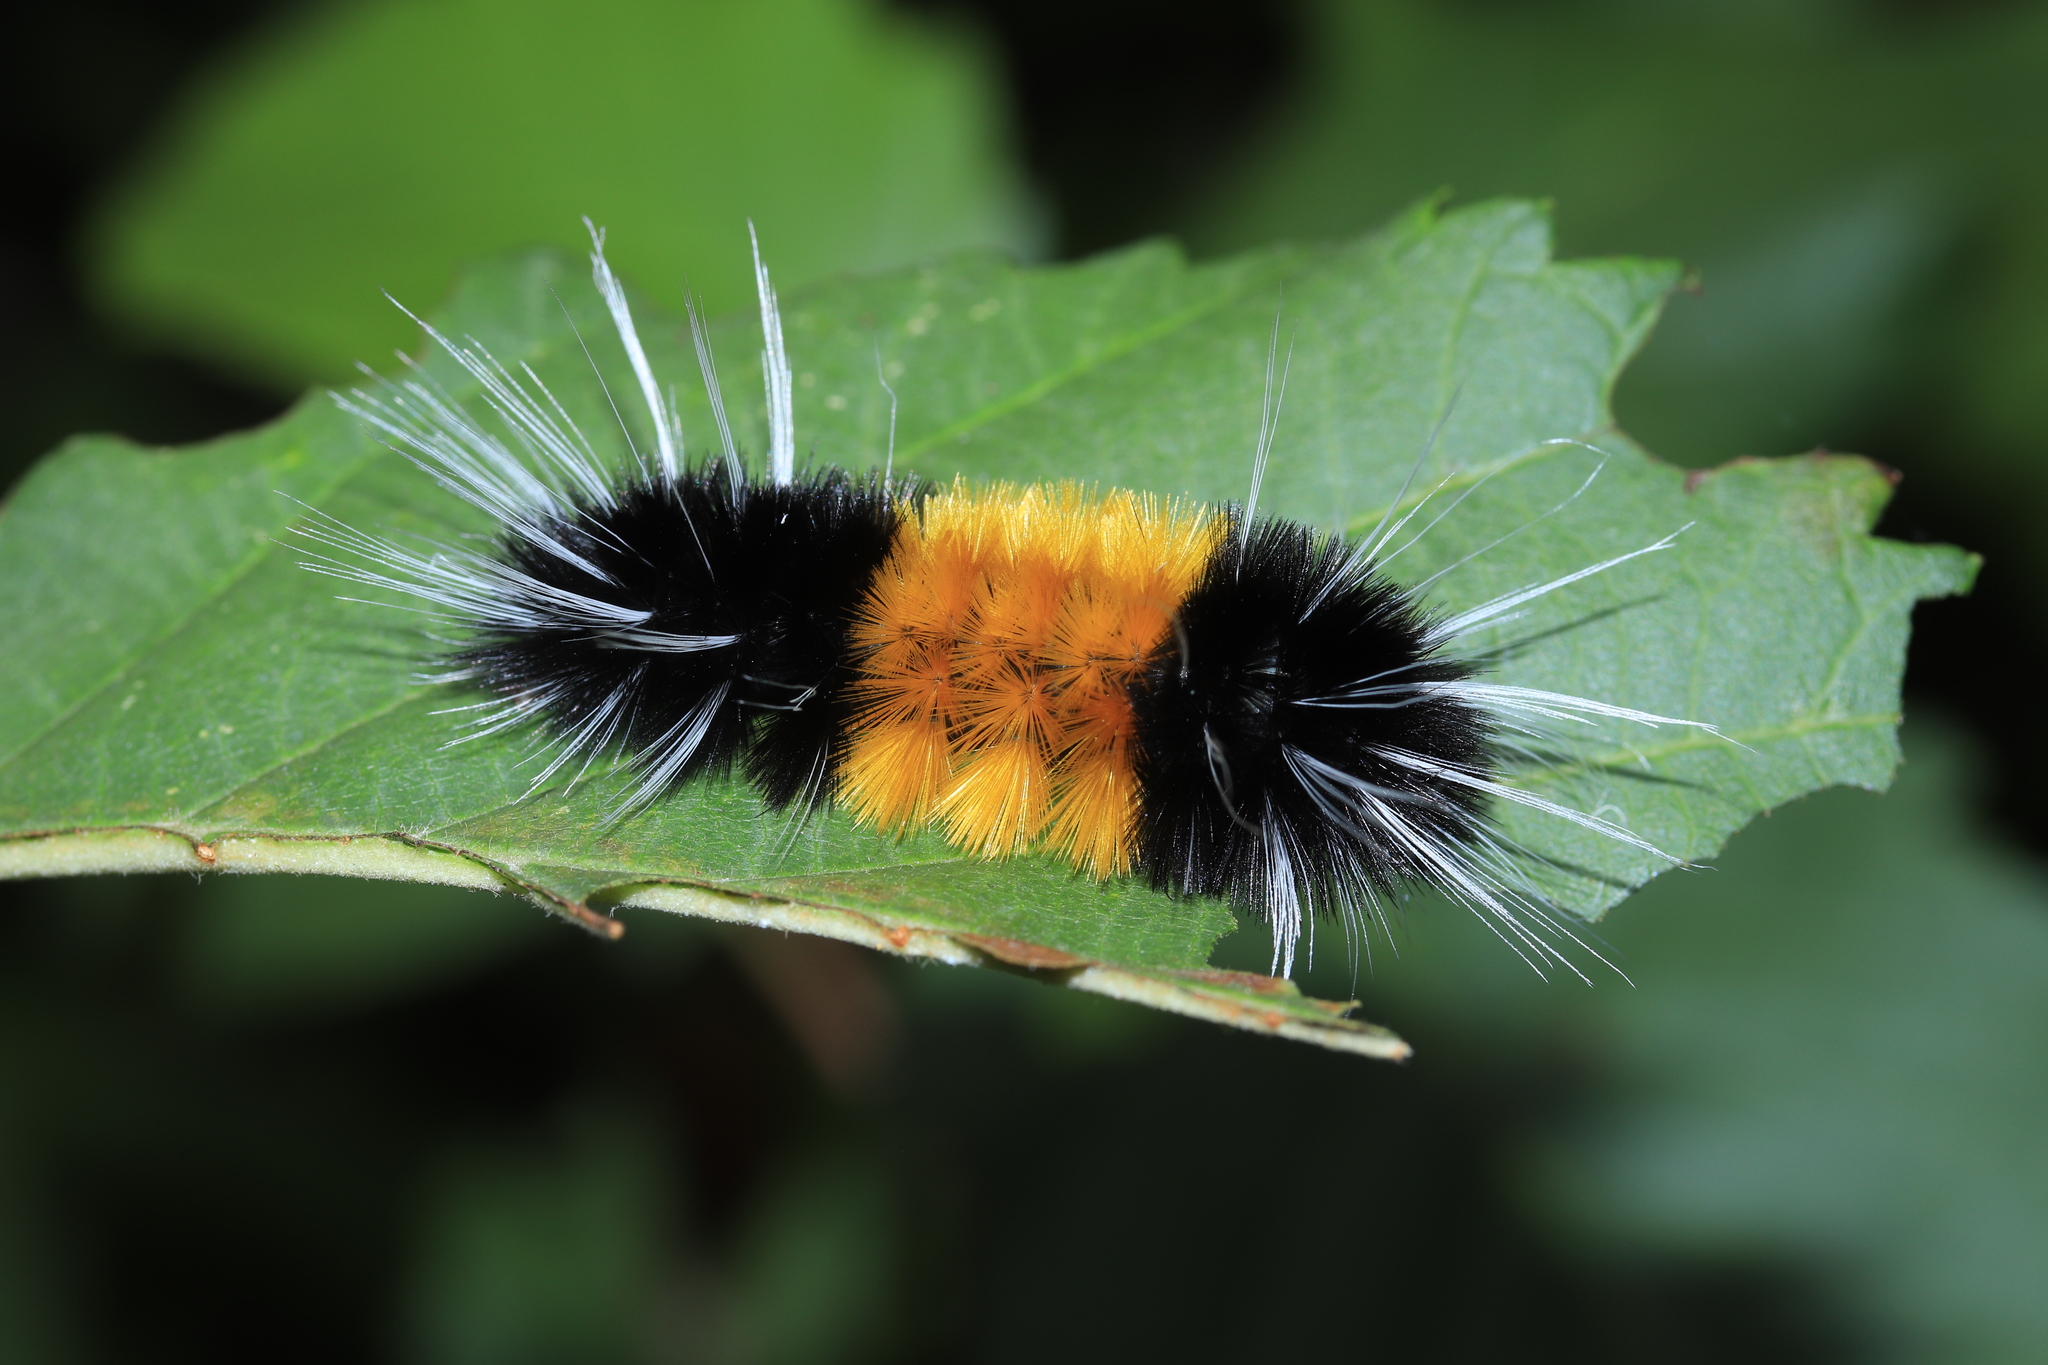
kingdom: Animalia
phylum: Arthropoda
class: Insecta
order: Lepidoptera
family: Erebidae
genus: Lophocampa
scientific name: Lophocampa maculata
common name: Spotted tussock moth
